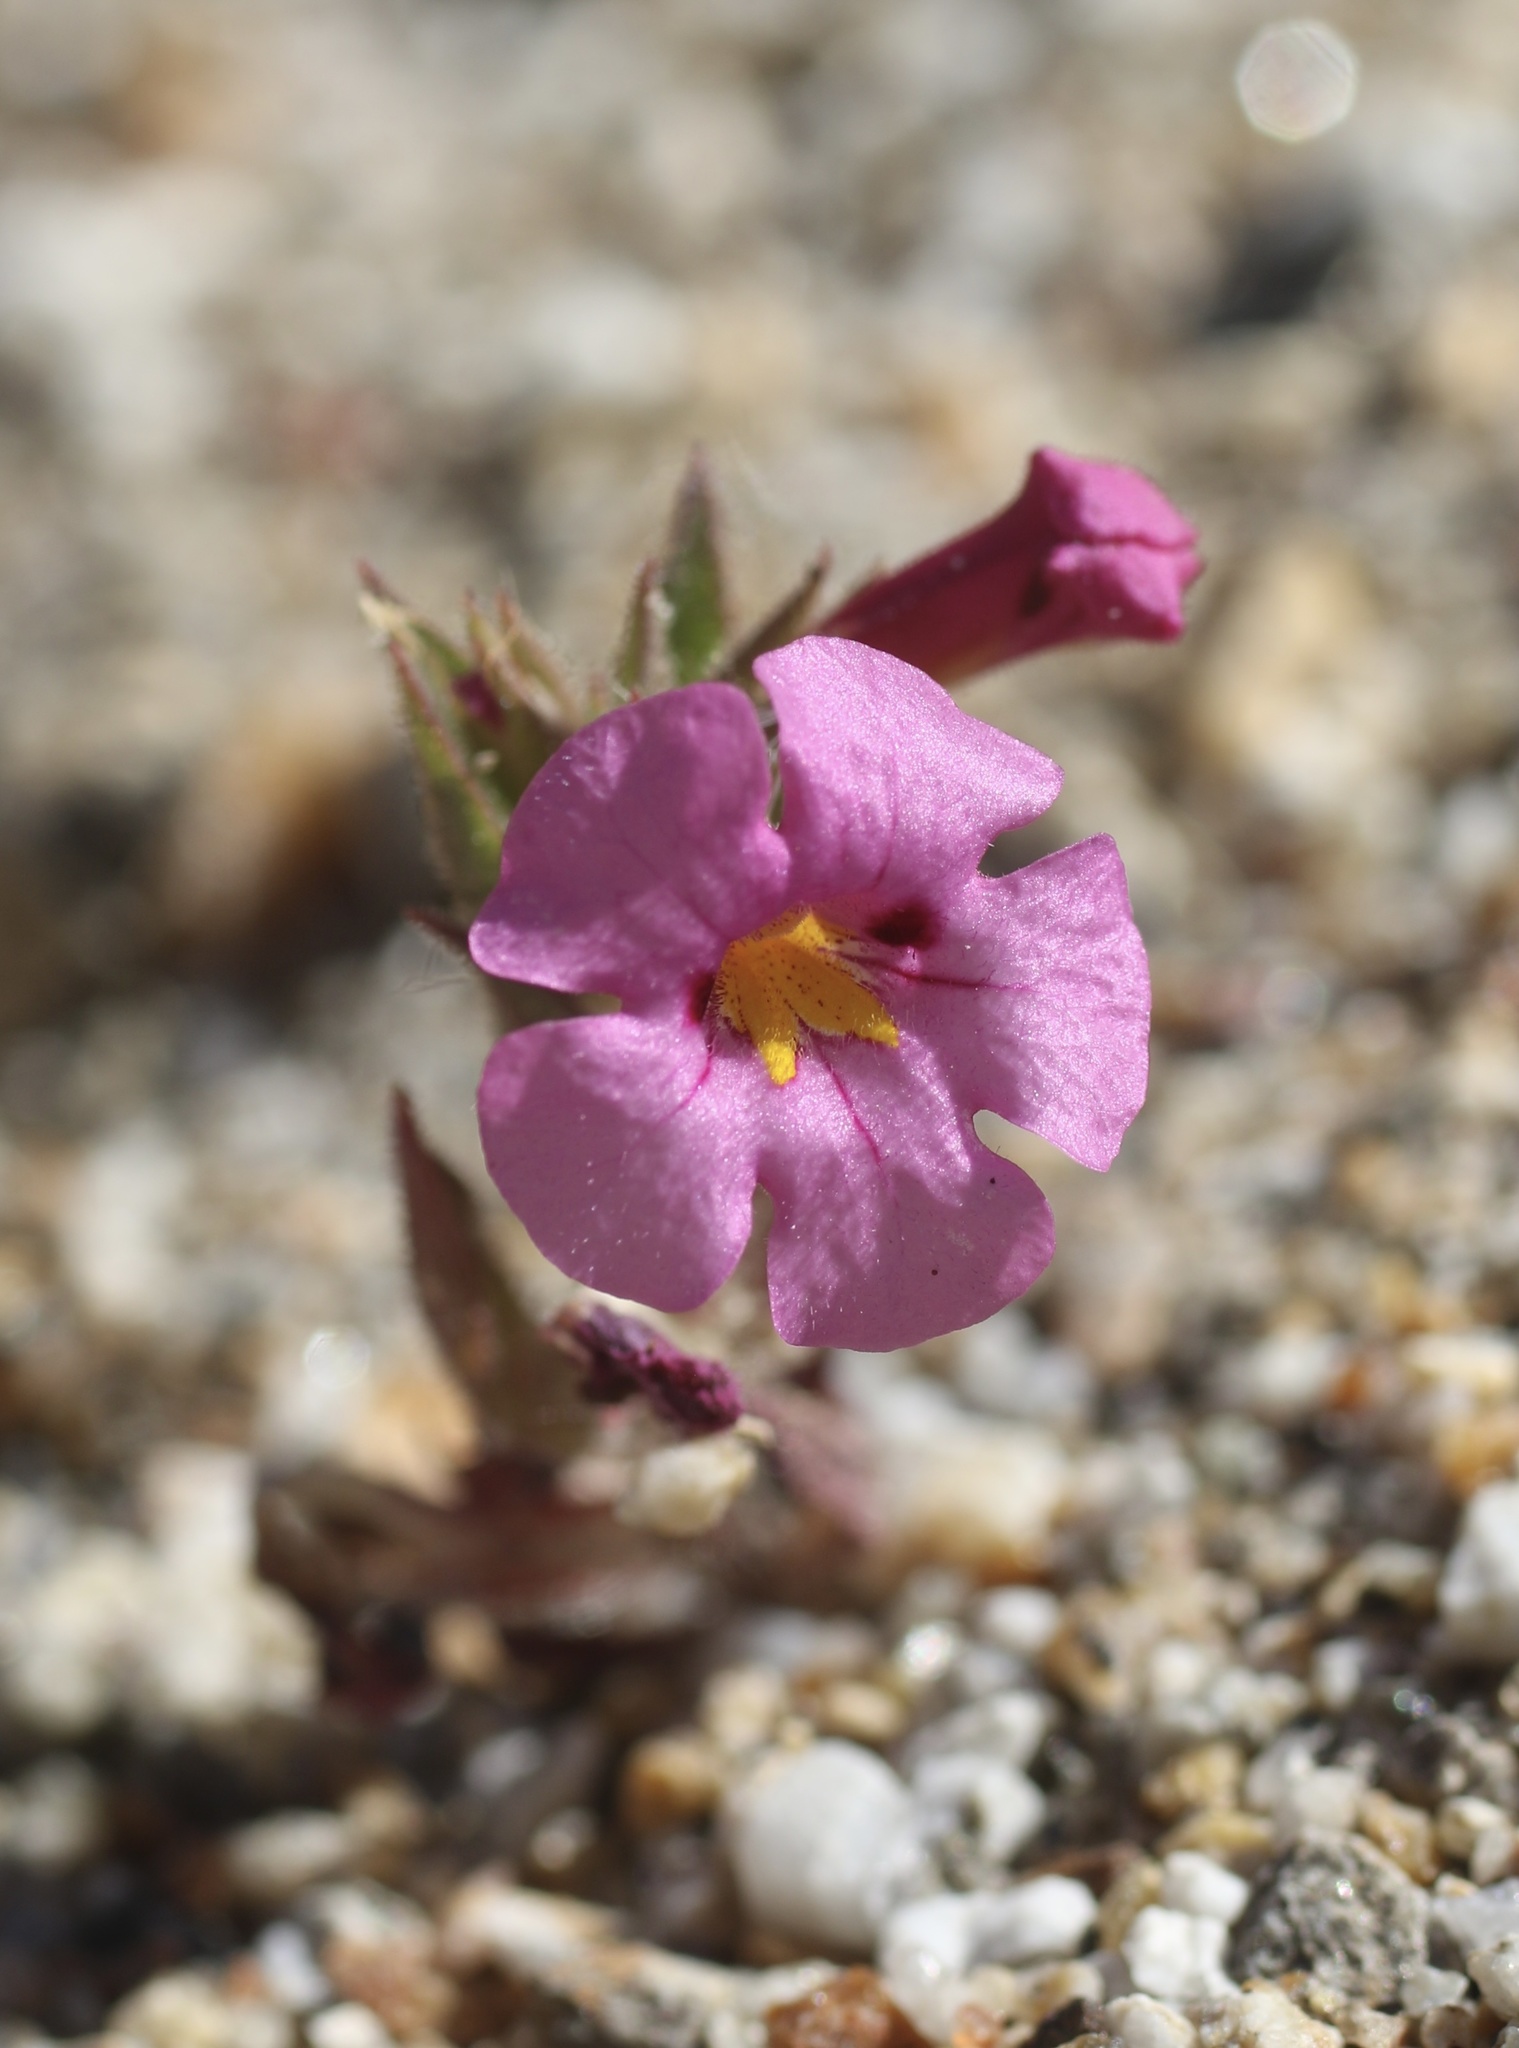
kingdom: Plantae
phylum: Tracheophyta
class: Magnoliopsida
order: Lamiales
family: Phrymaceae
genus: Diplacus
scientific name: Diplacus bigelovii
